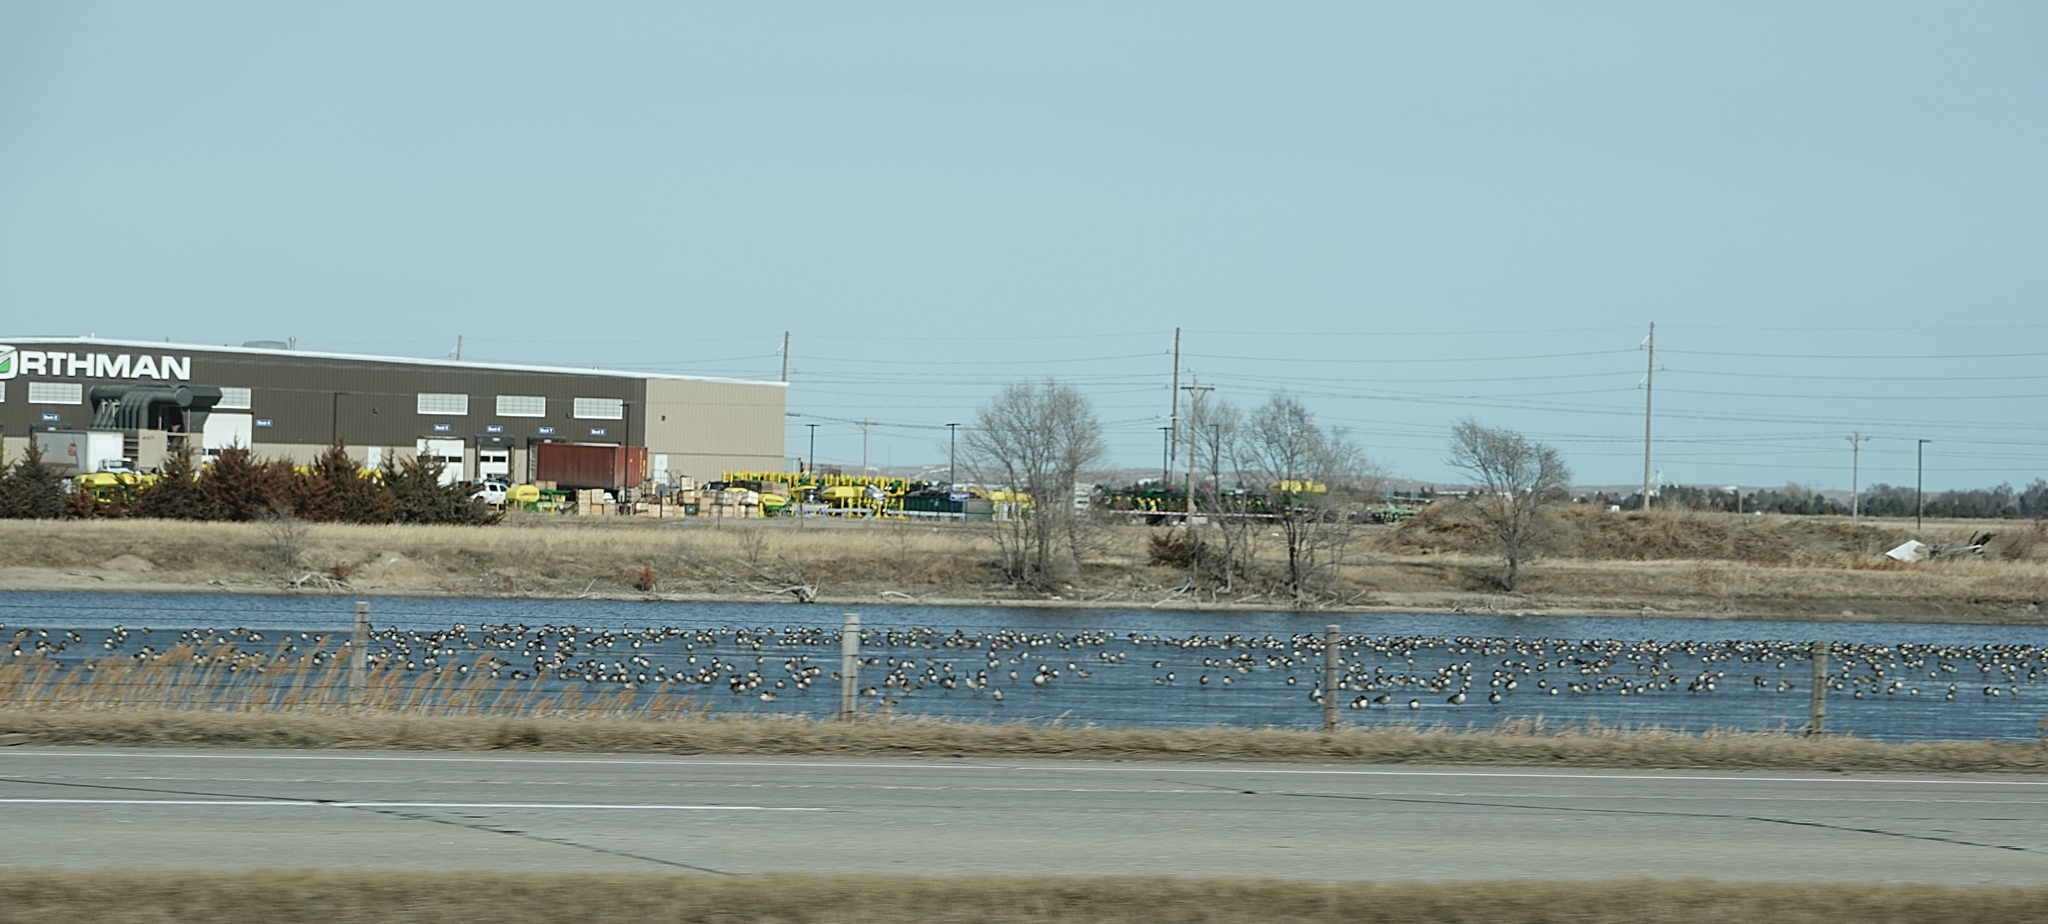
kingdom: Animalia
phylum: Chordata
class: Aves
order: Anseriformes
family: Anatidae
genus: Branta
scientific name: Branta canadensis
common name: Canada goose
